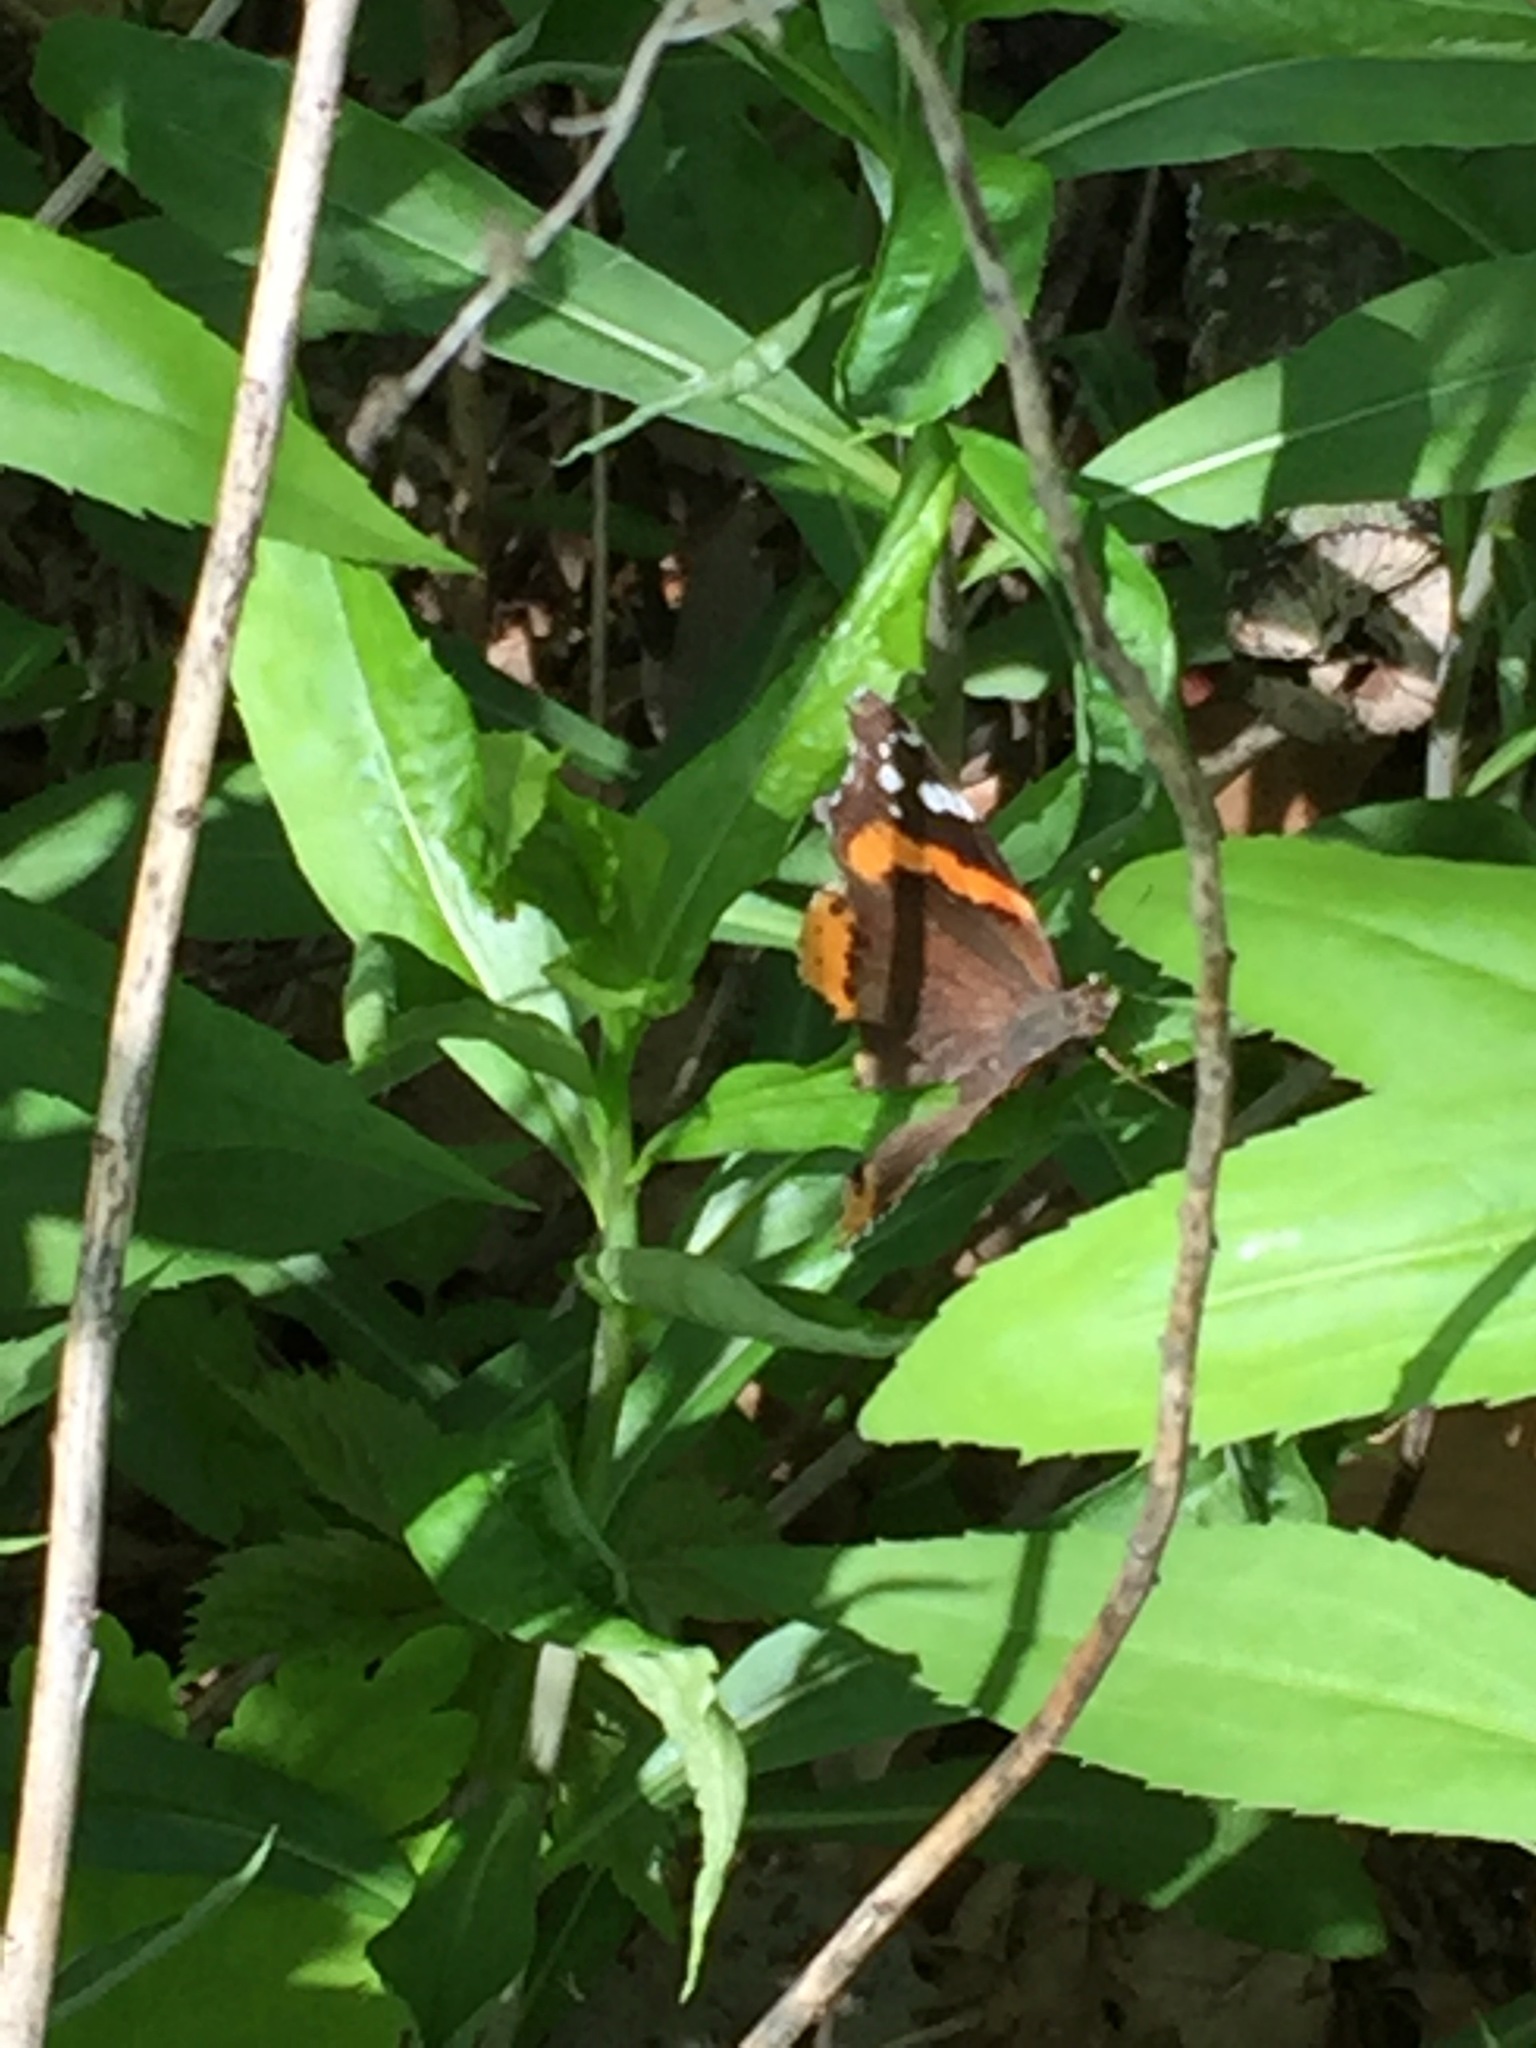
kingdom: Animalia
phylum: Arthropoda
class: Insecta
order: Lepidoptera
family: Nymphalidae
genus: Vanessa
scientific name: Vanessa atalanta
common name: Red admiral
